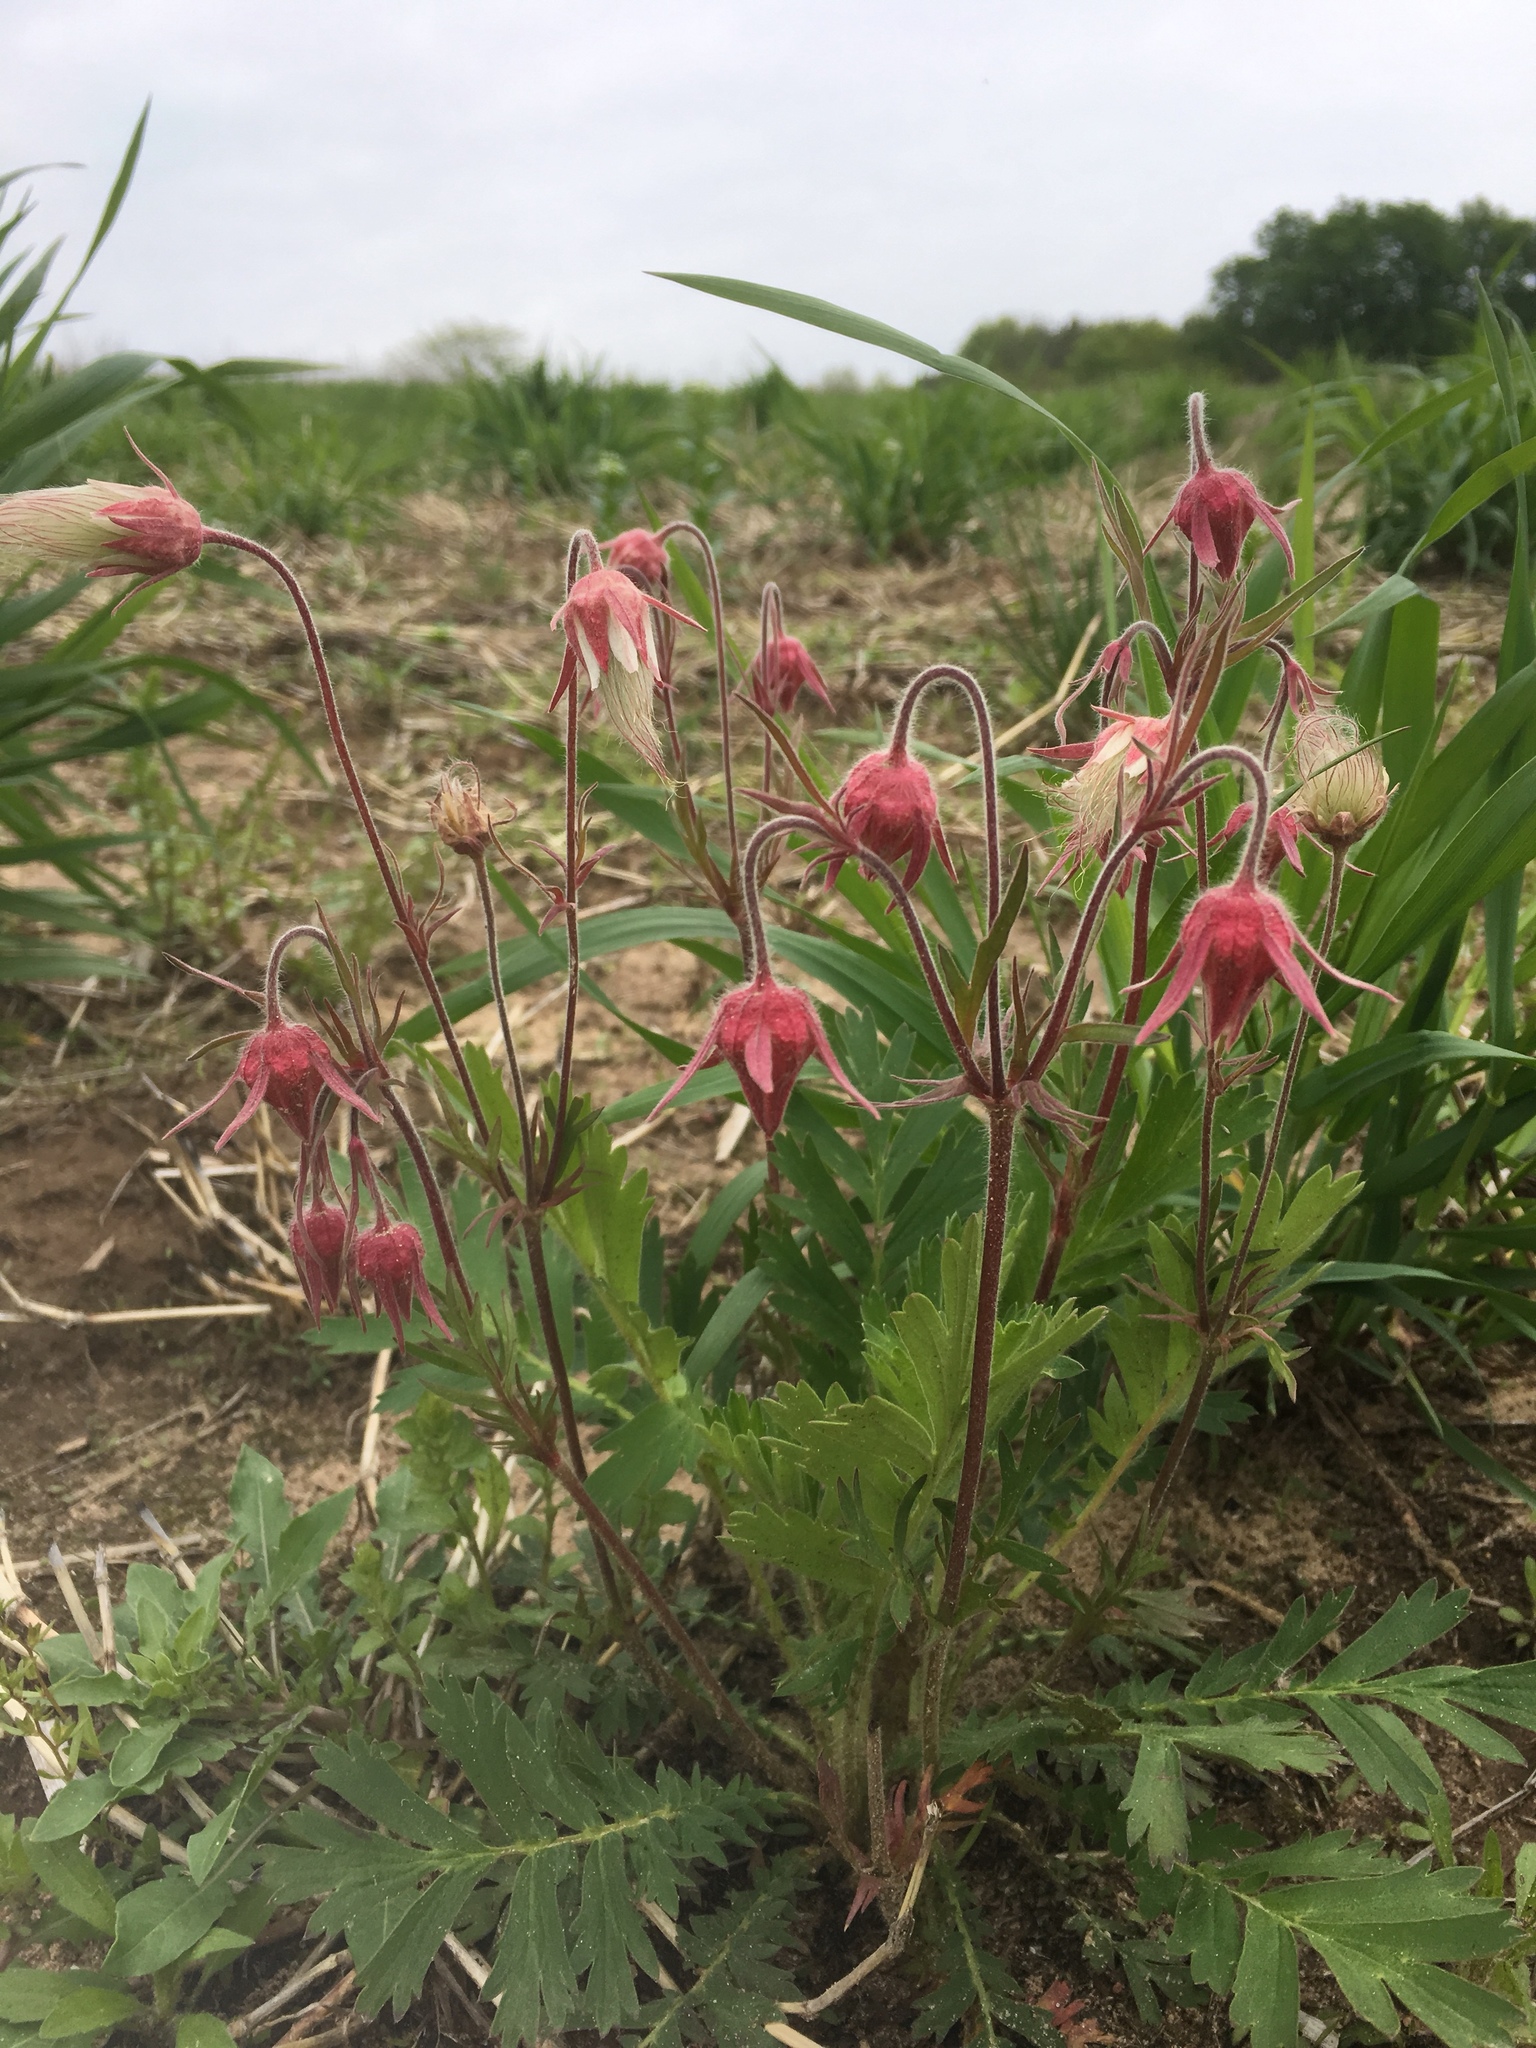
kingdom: Plantae
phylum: Tracheophyta
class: Magnoliopsida
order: Rosales
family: Rosaceae
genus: Geum
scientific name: Geum triflorum
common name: Old man's whiskers
